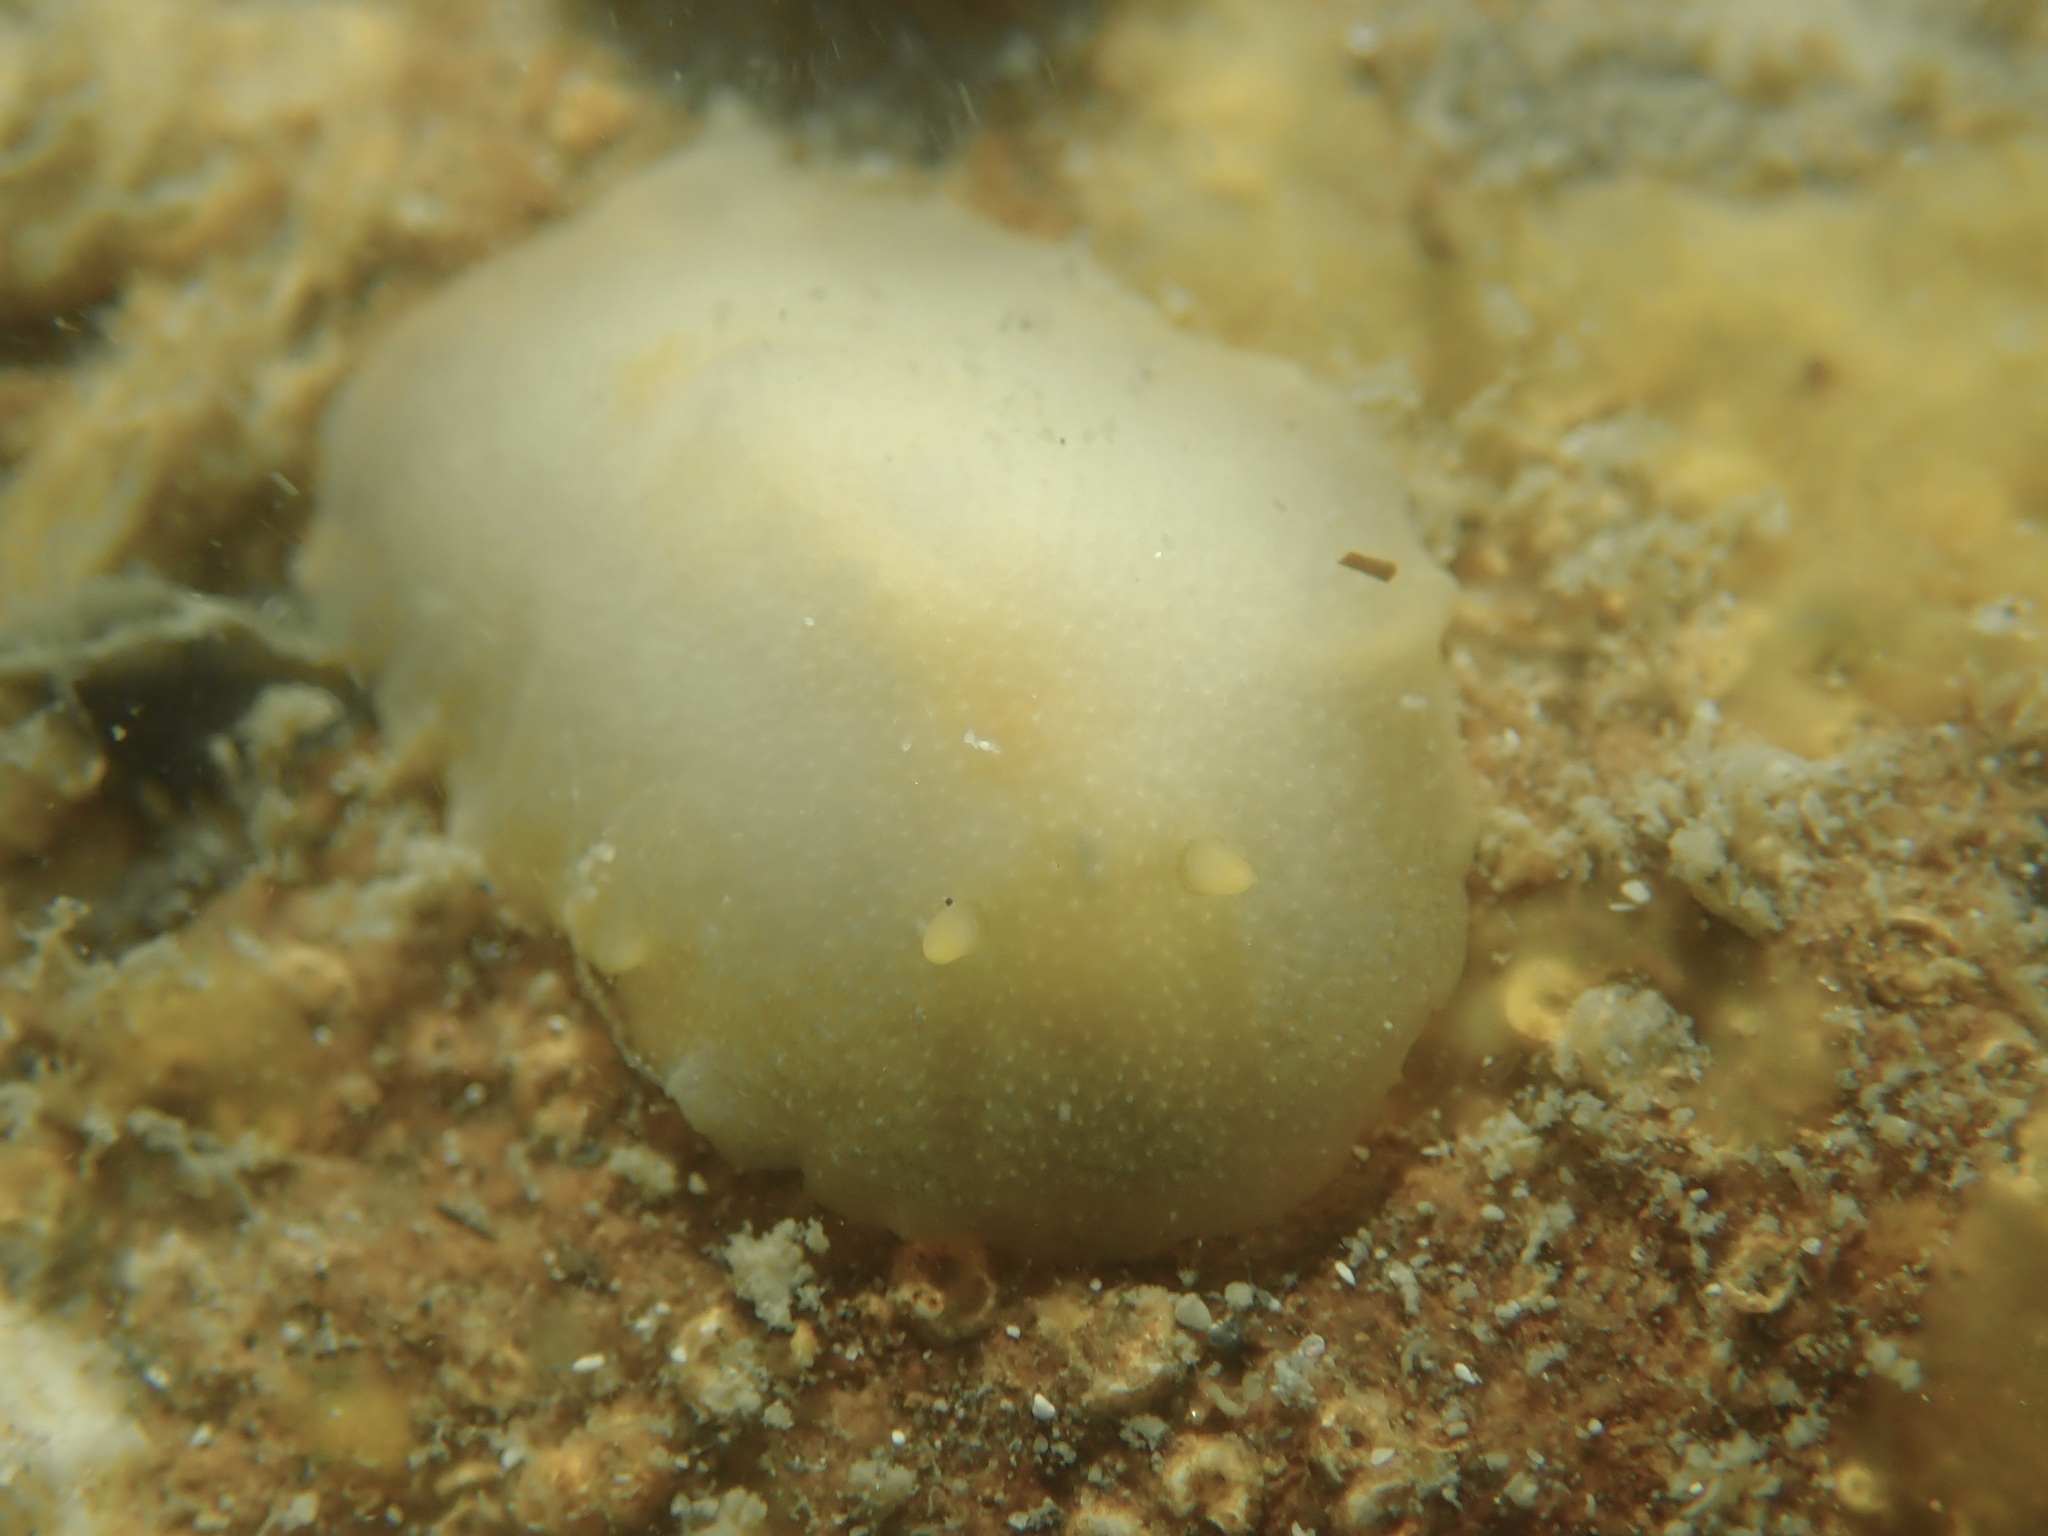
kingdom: Animalia
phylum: Mollusca
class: Gastropoda
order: Nudibranchia
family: Dorididae
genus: Conualevia
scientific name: Conualevia marcusi
